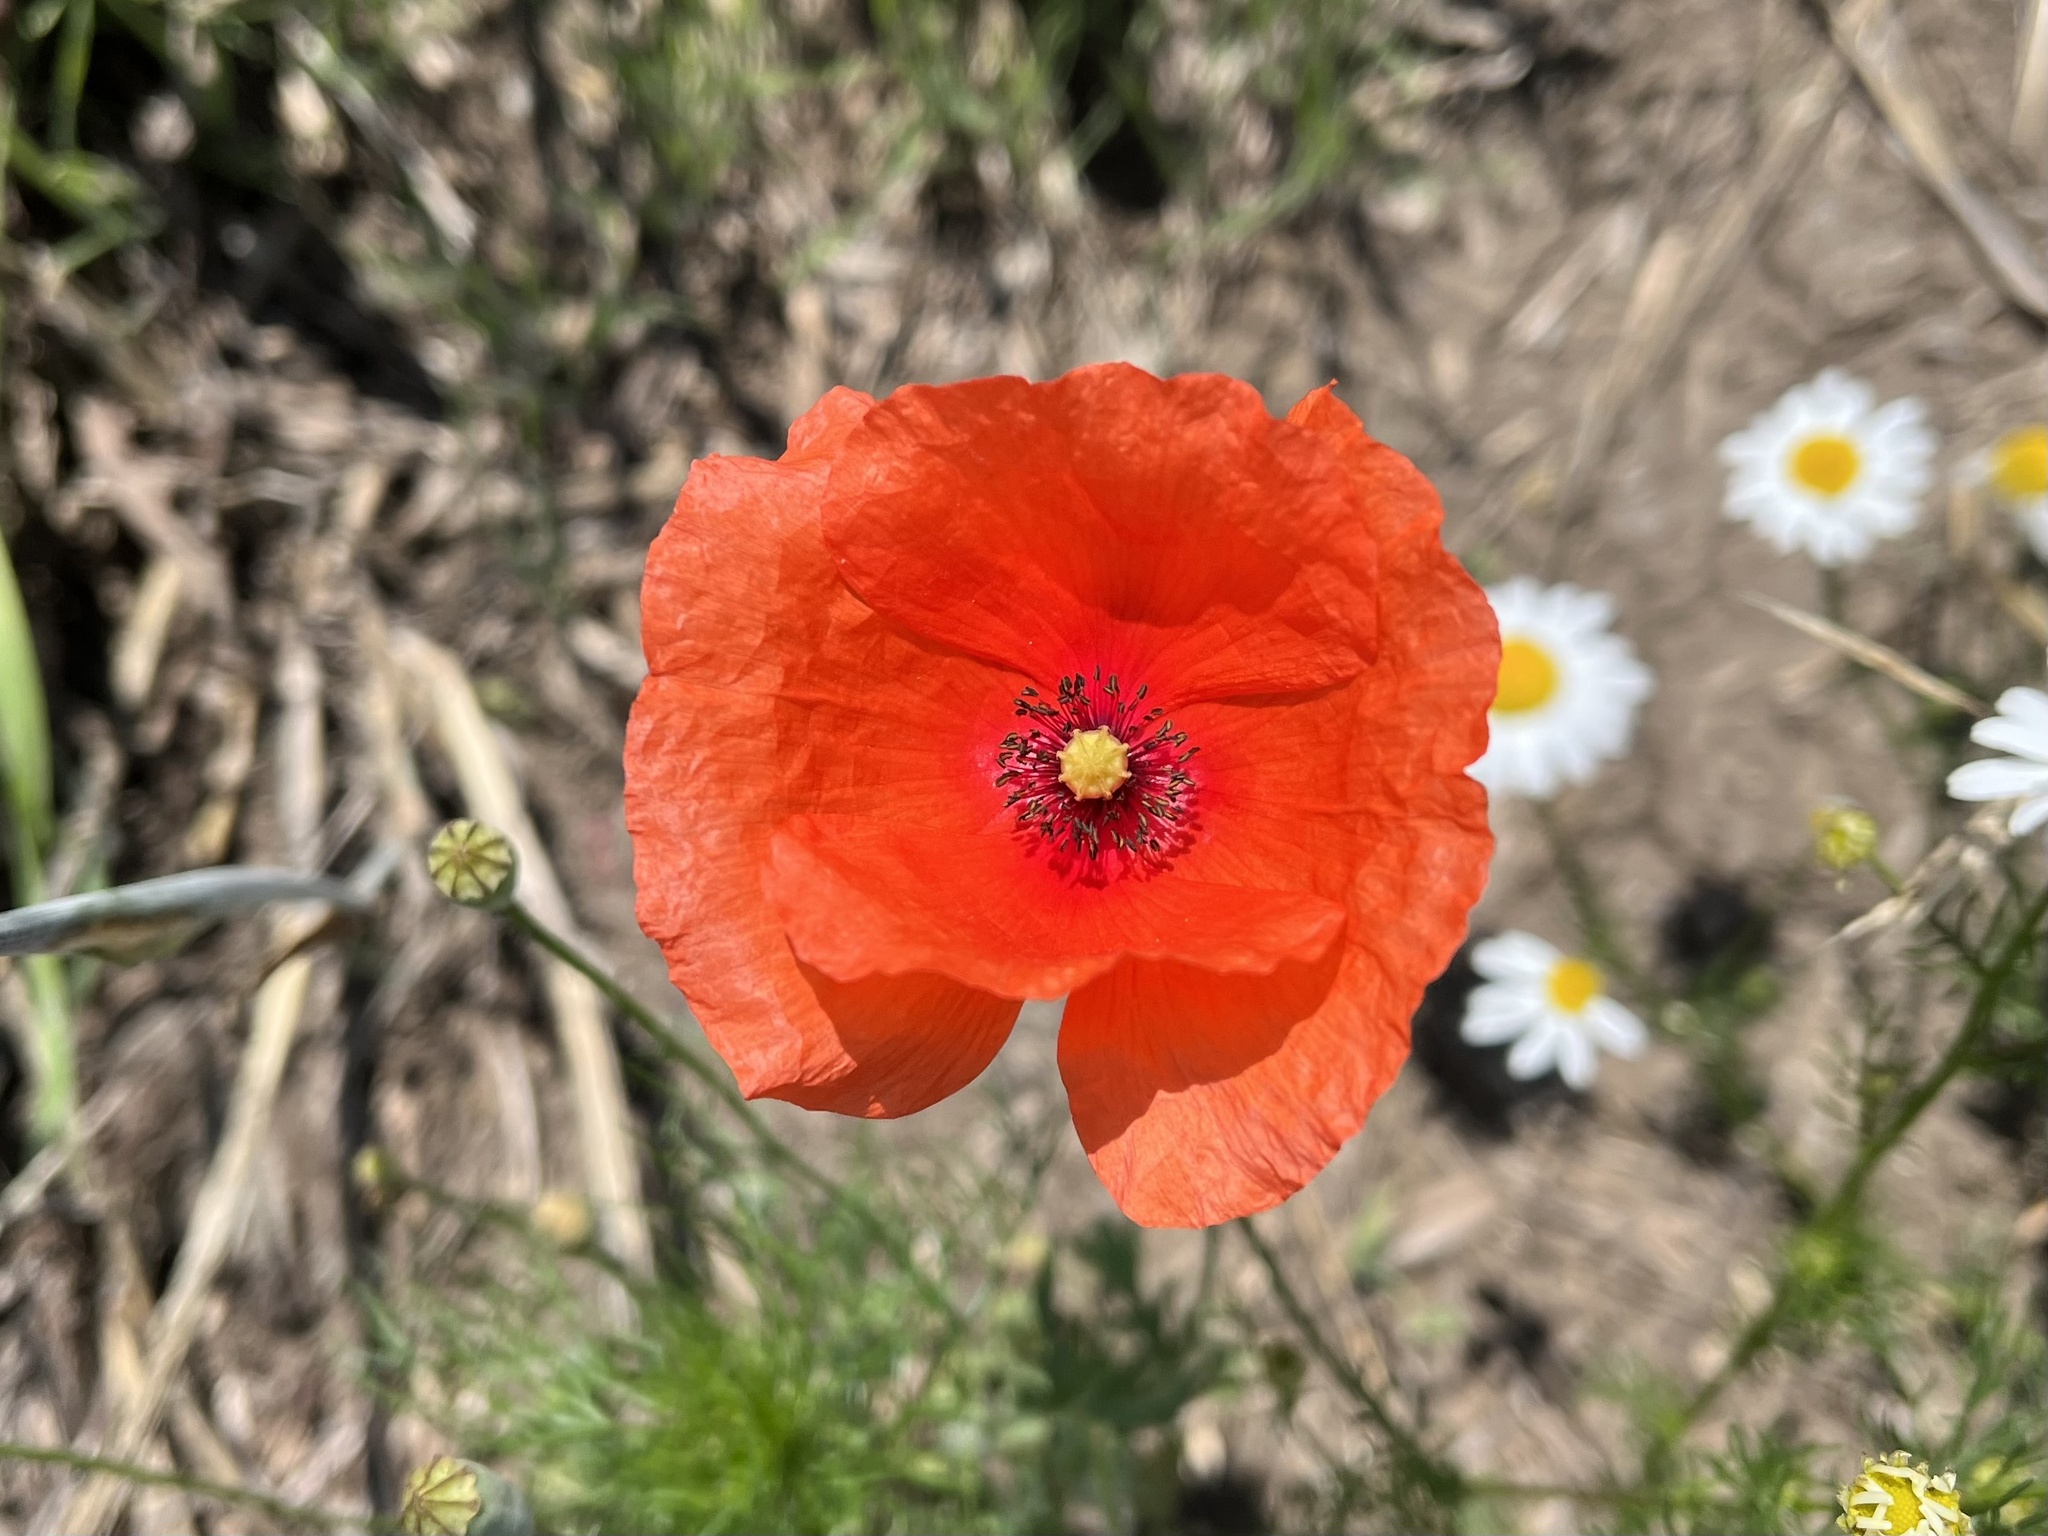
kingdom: Plantae
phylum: Tracheophyta
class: Magnoliopsida
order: Ranunculales
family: Papaveraceae
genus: Papaver
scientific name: Papaver rhoeas
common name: Corn poppy
